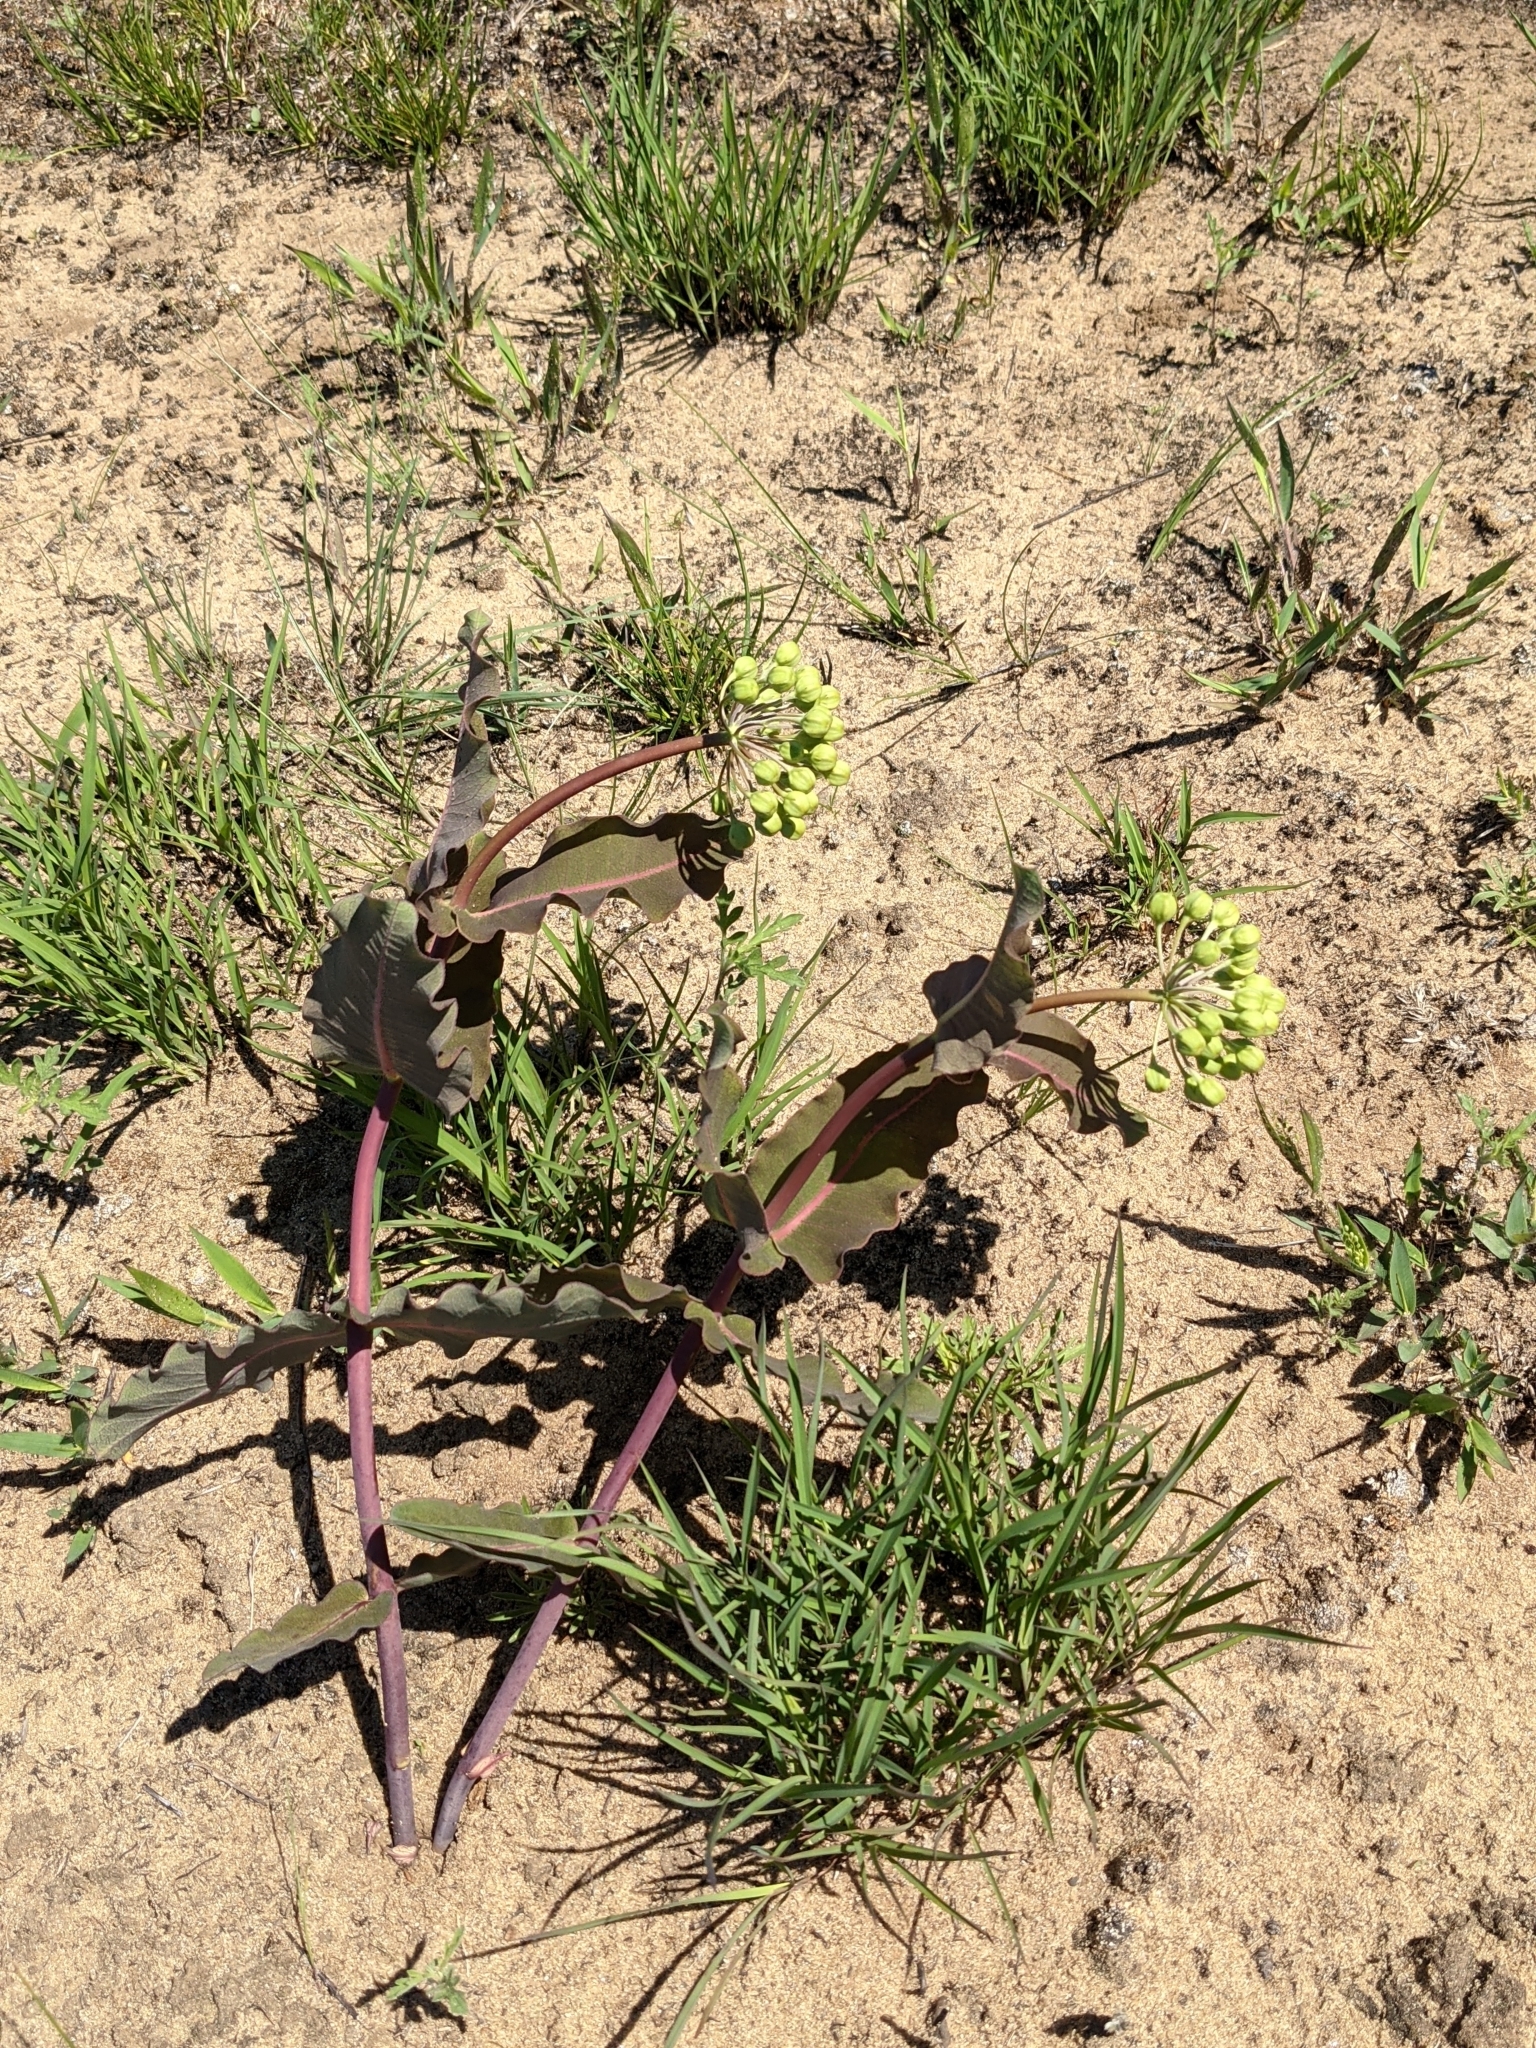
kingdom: Plantae
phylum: Tracheophyta
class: Magnoliopsida
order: Gentianales
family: Apocynaceae
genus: Asclepias
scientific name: Asclepias amplexicaulis
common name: Blunt-leaf milkweed
